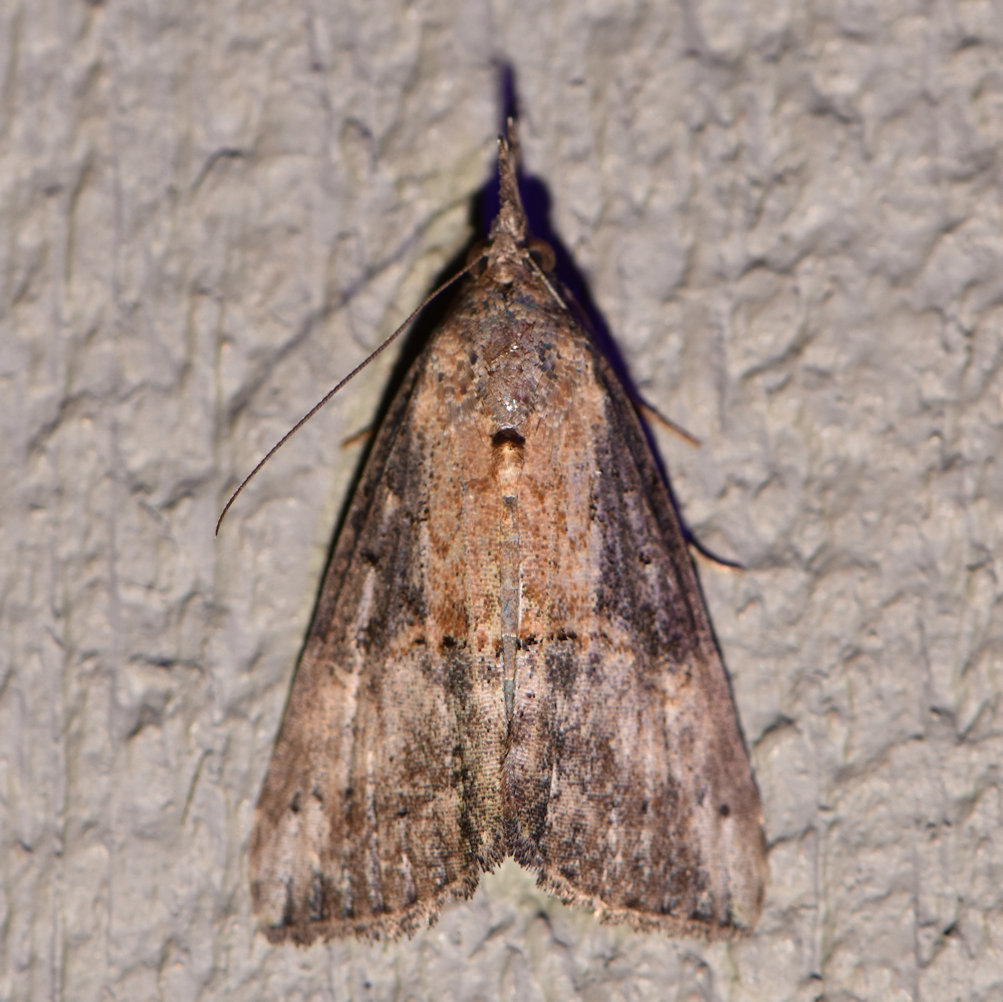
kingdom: Animalia
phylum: Arthropoda
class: Insecta
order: Lepidoptera
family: Erebidae
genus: Hypena
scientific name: Hypena scabra
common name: Green cloverworm
